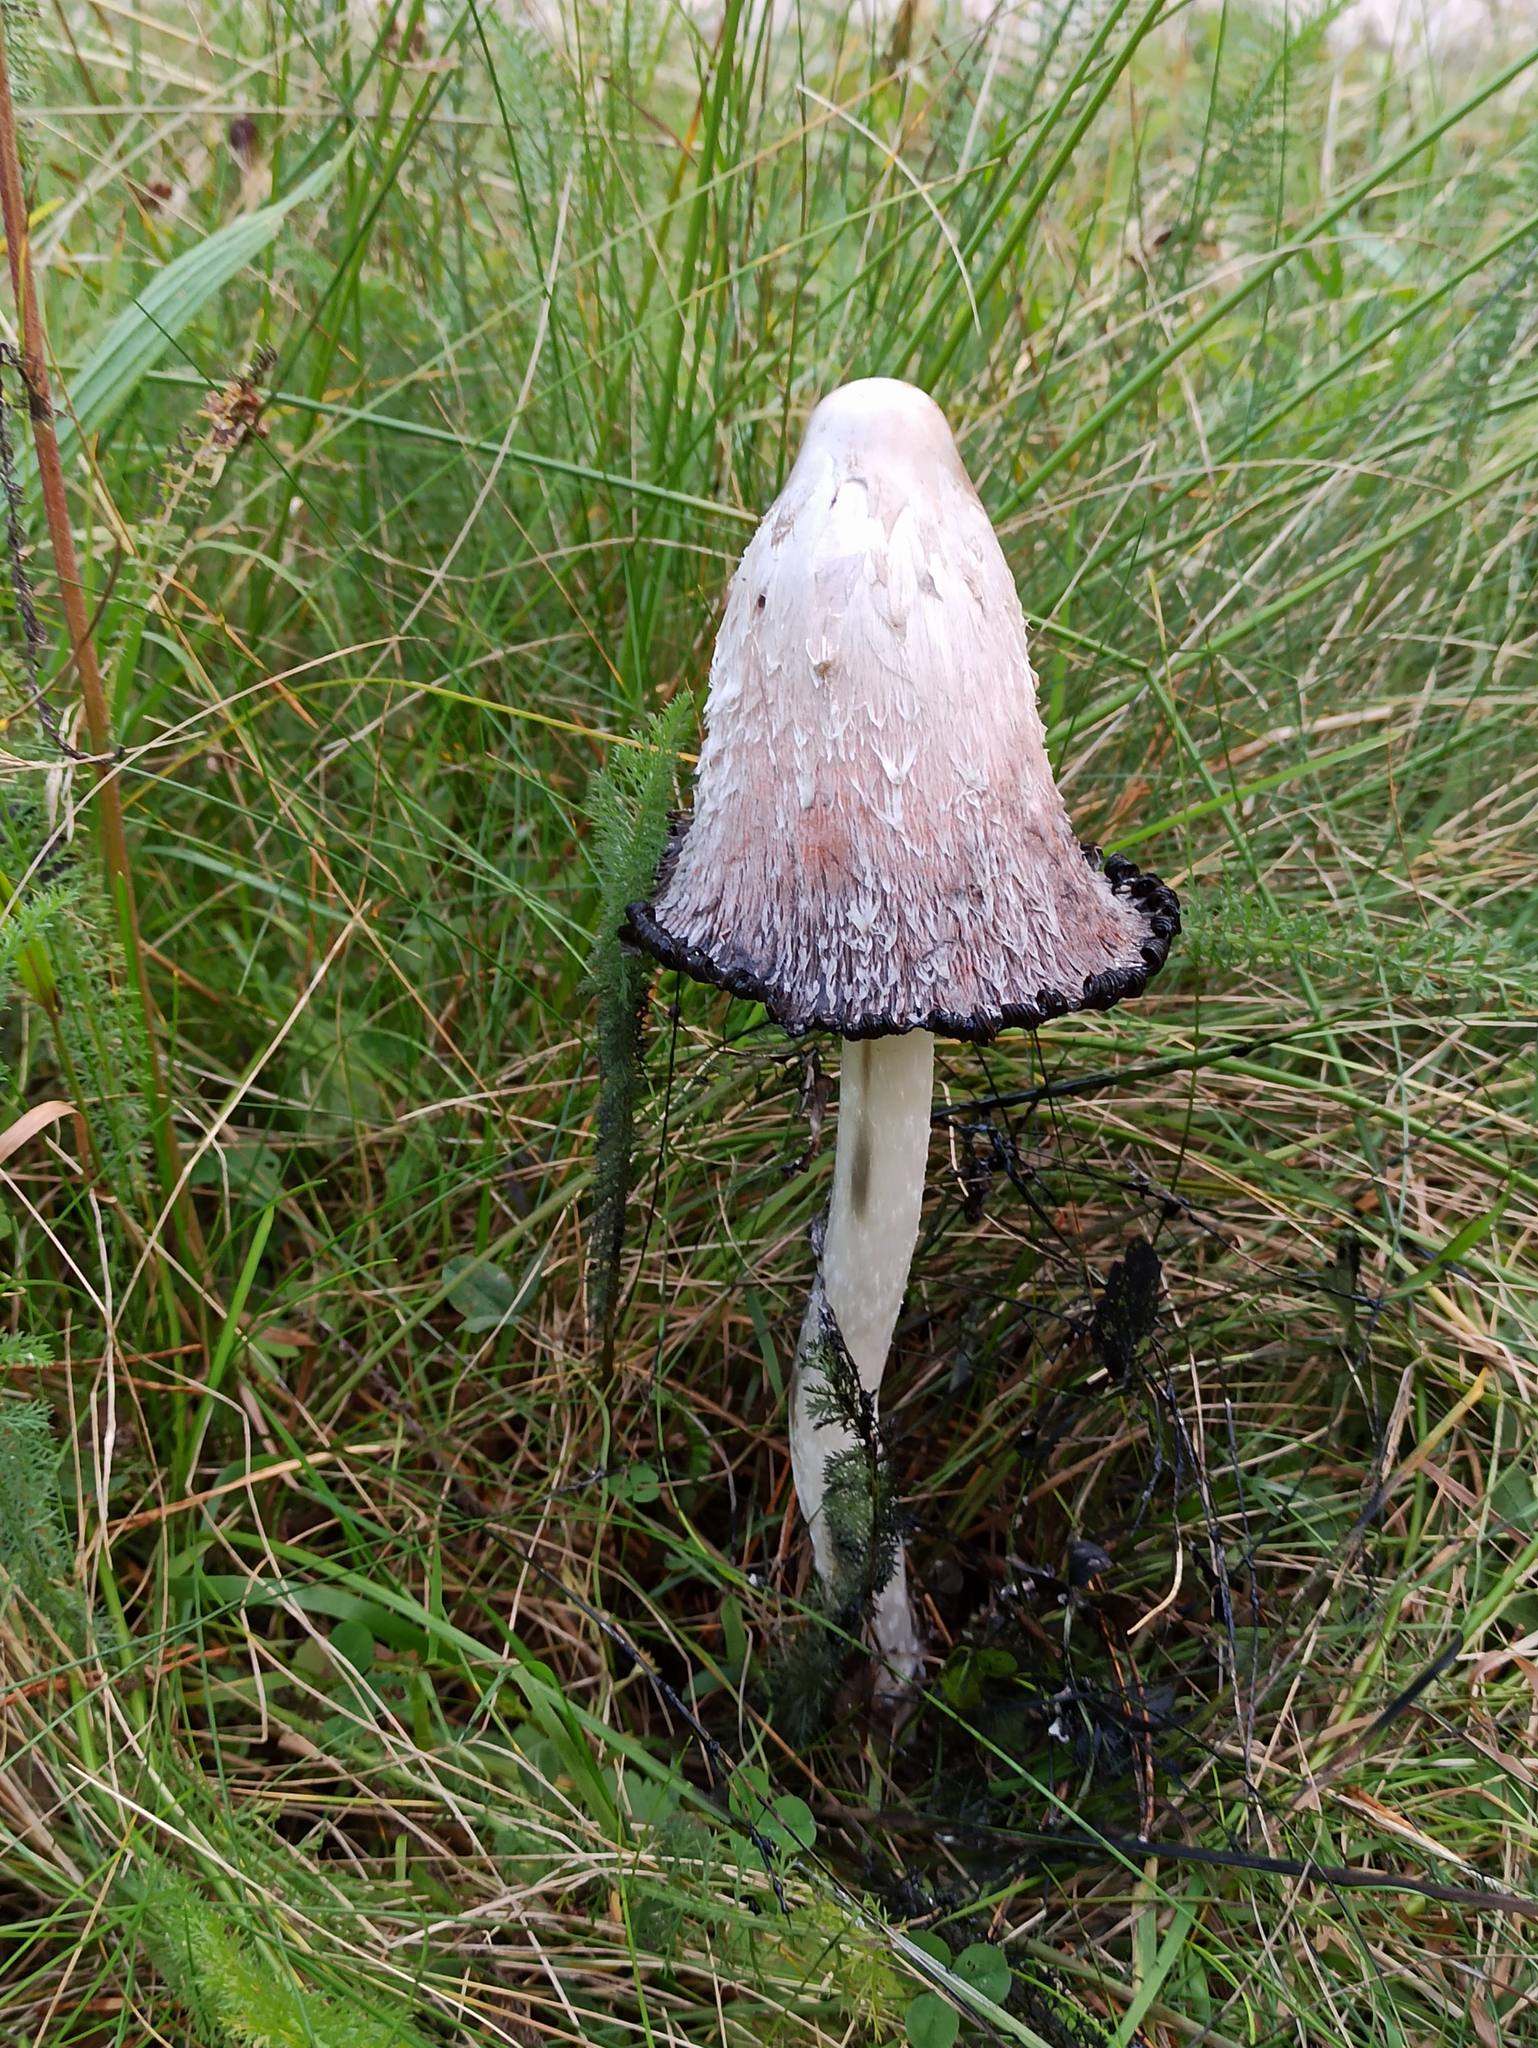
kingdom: Fungi
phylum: Basidiomycota
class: Agaricomycetes
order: Agaricales
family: Agaricaceae
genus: Coprinus
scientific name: Coprinus comatus
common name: Lawyer's wig
